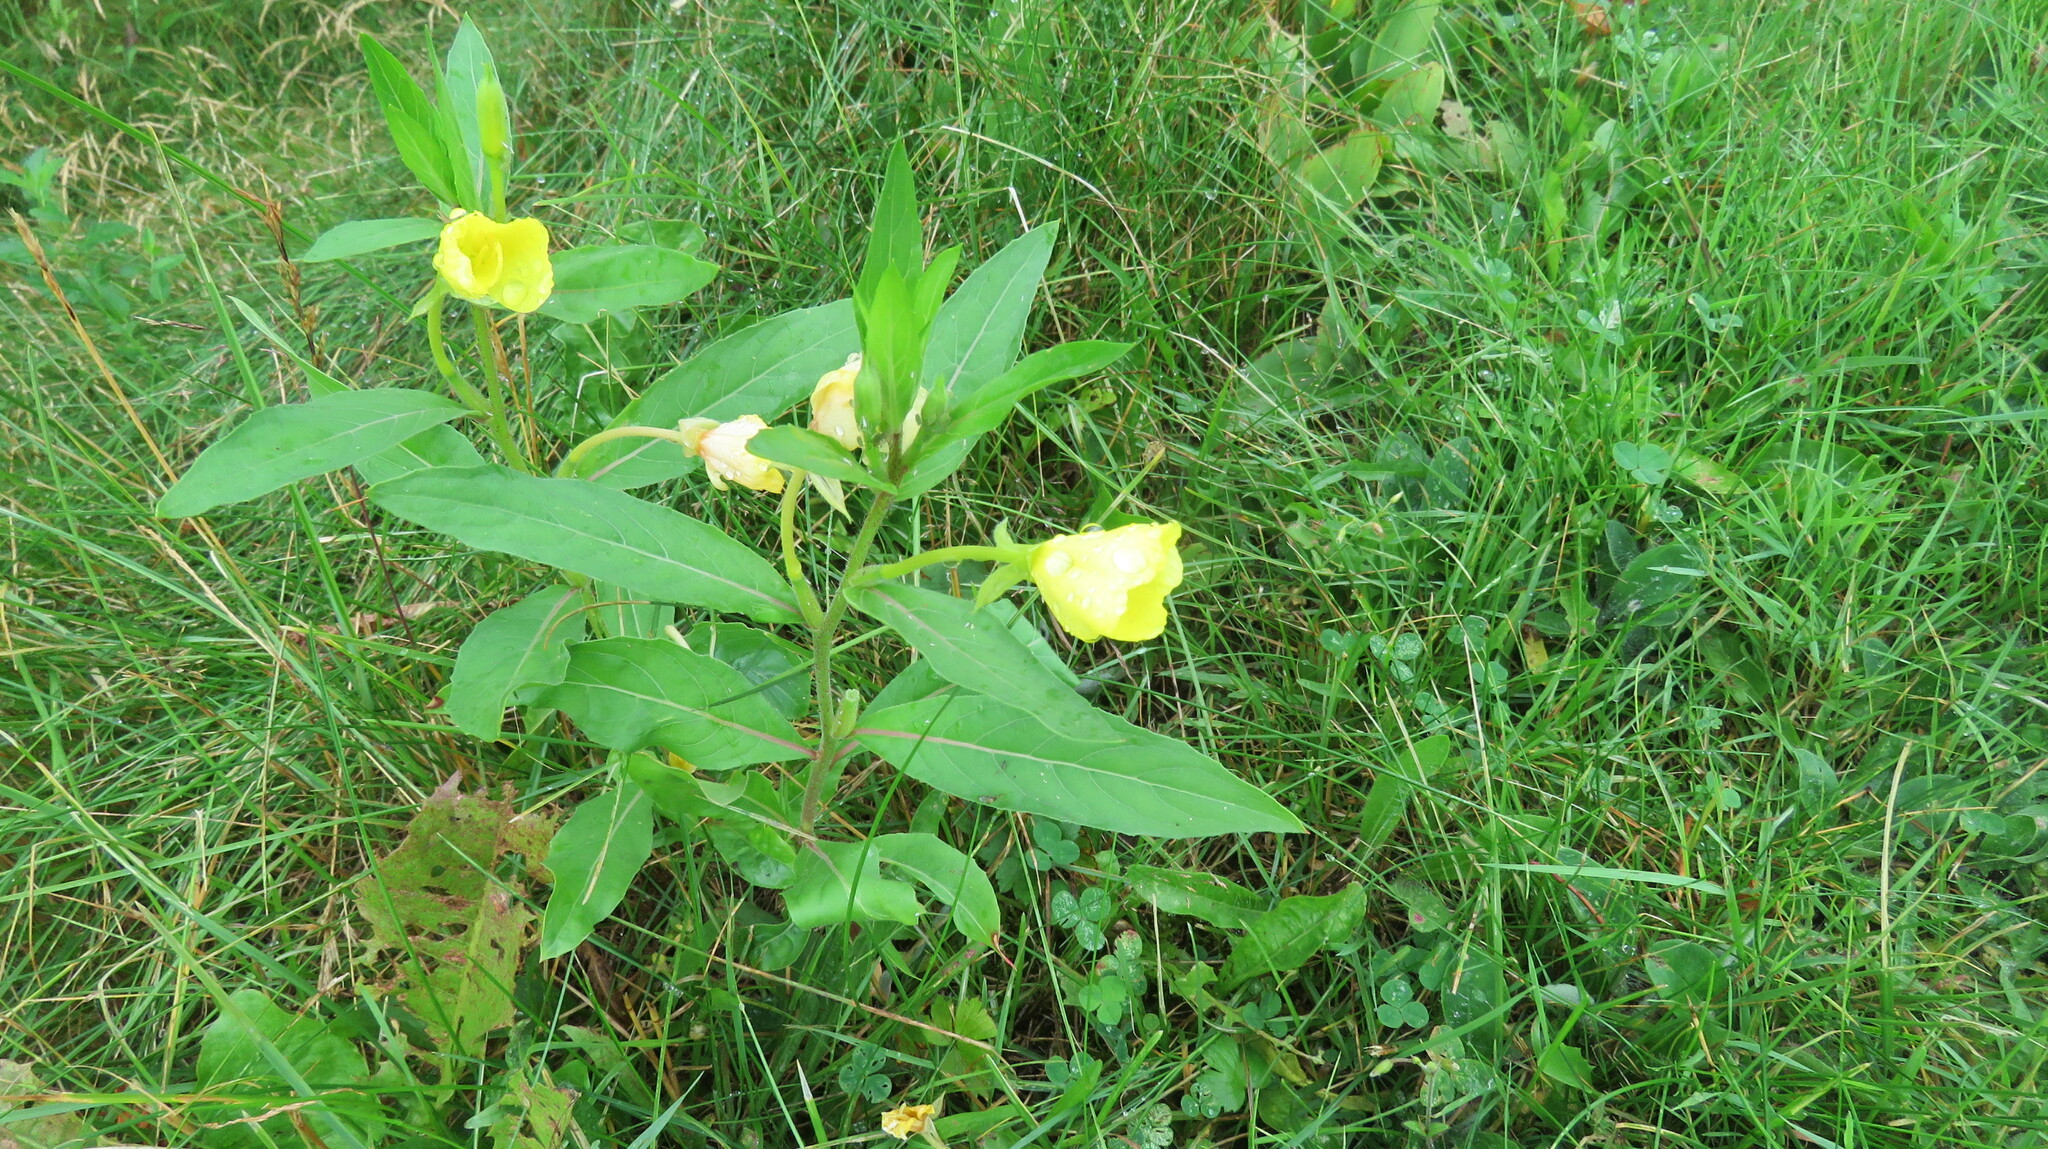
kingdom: Plantae
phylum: Tracheophyta
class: Magnoliopsida
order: Myrtales
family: Onagraceae
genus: Oenothera
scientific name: Oenothera biennis
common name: Common evening-primrose
